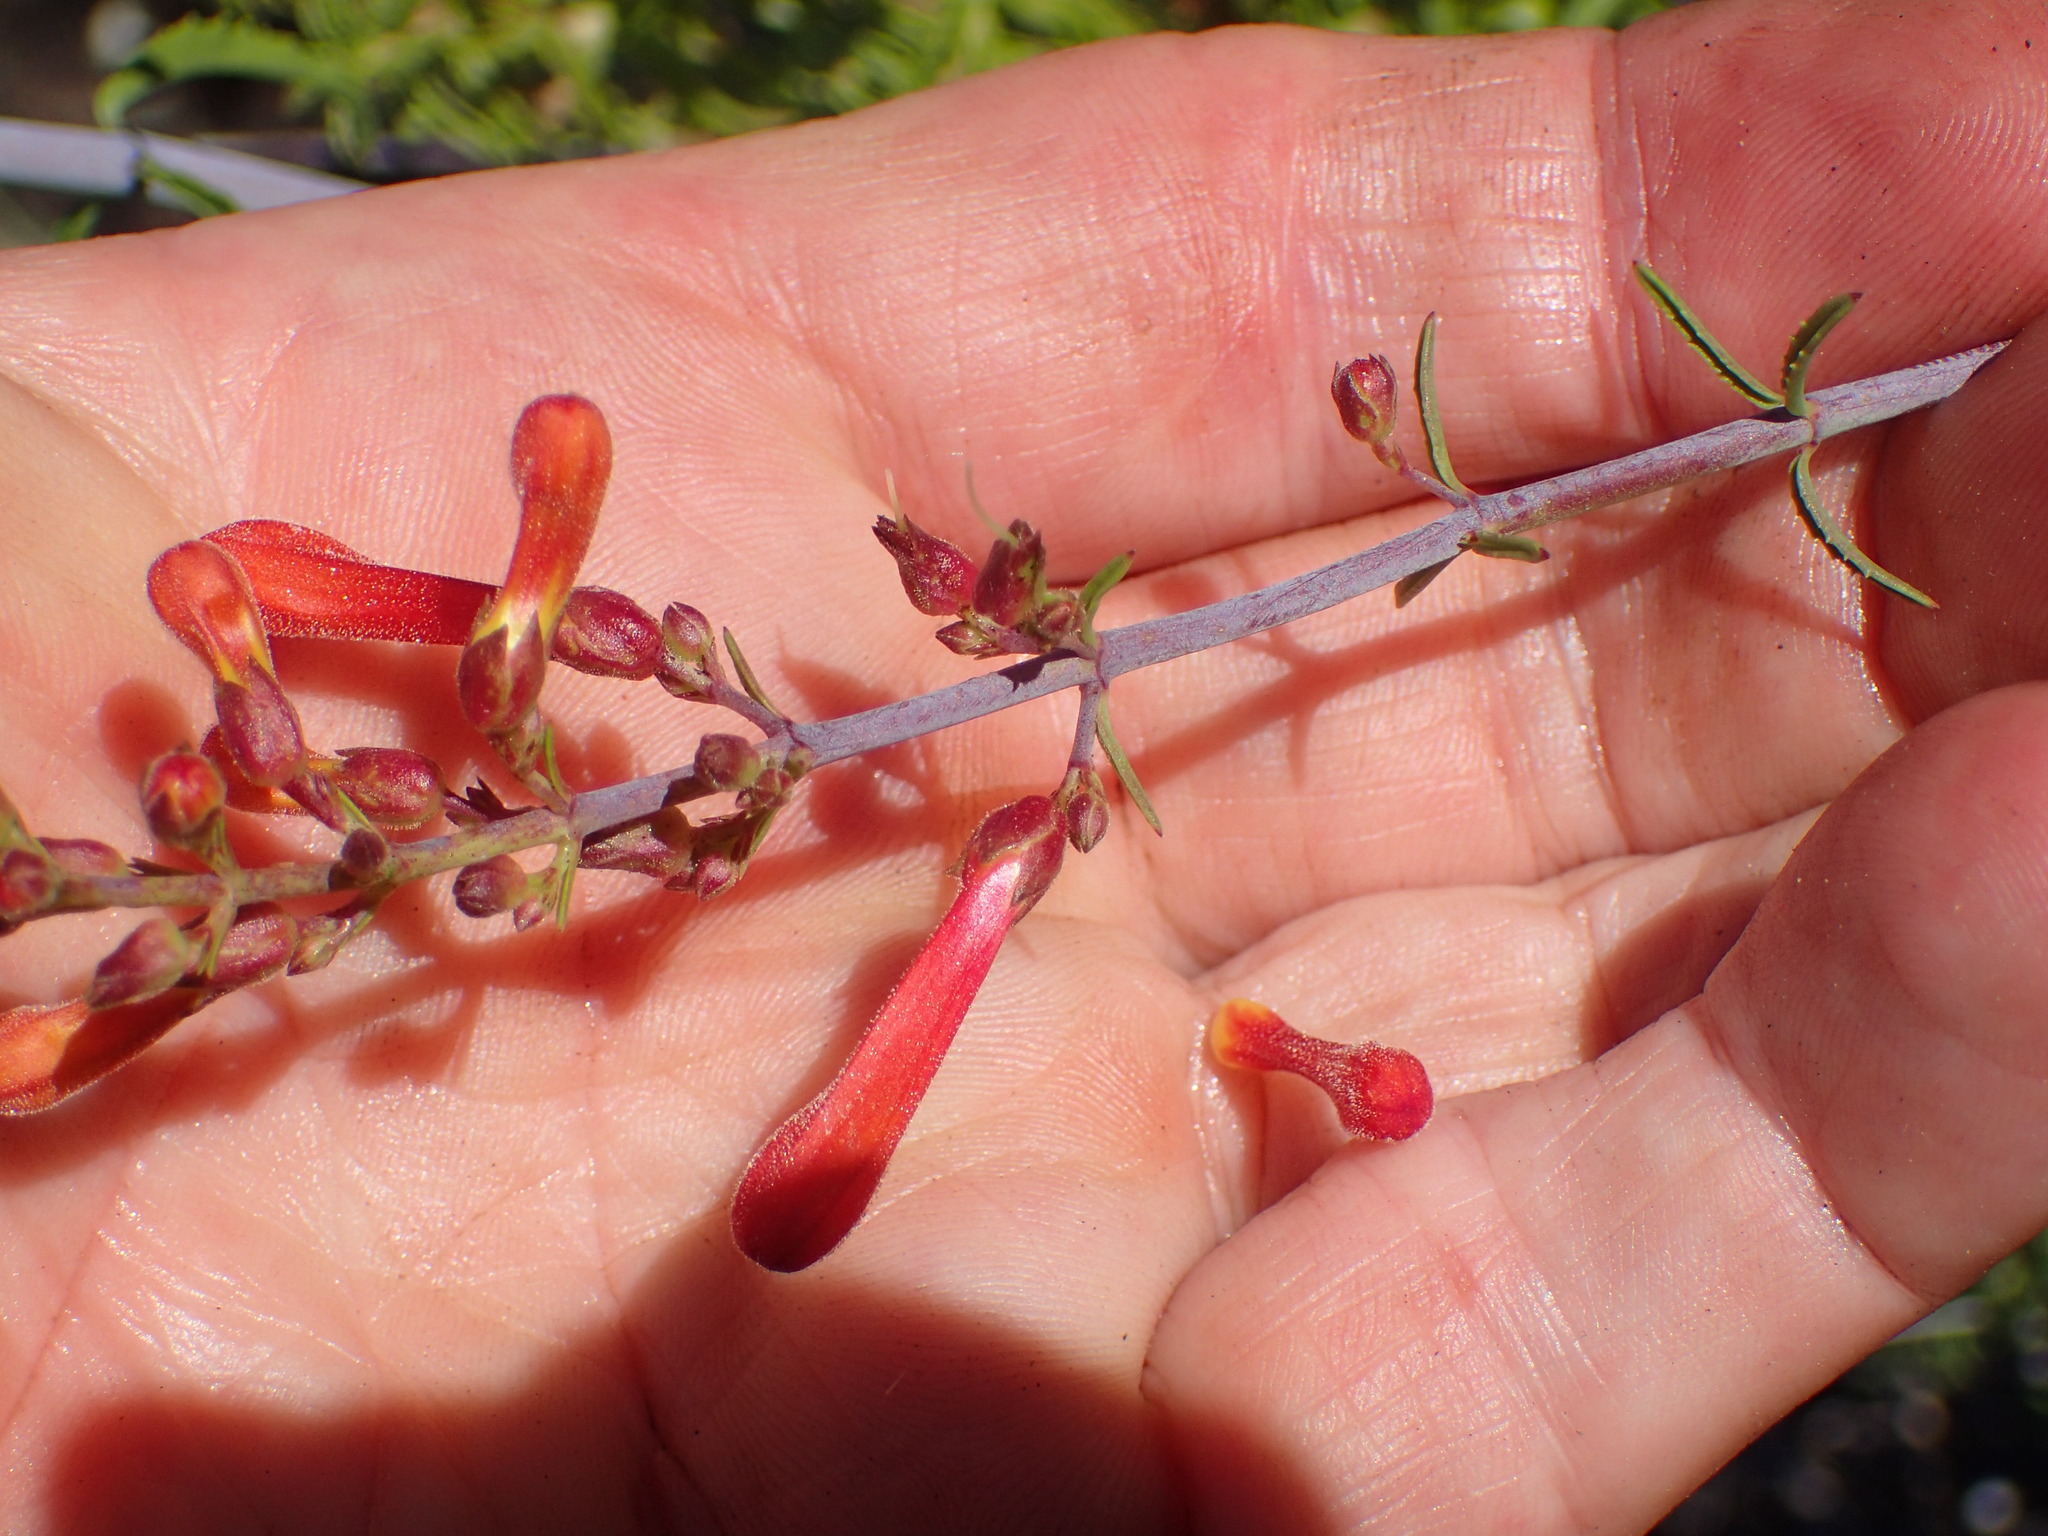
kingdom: Plantae
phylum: Tracheophyta
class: Magnoliopsida
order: Lamiales
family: Plantaginaceae
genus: Keckiella
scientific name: Keckiella ternata
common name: Scarlet keckiella
